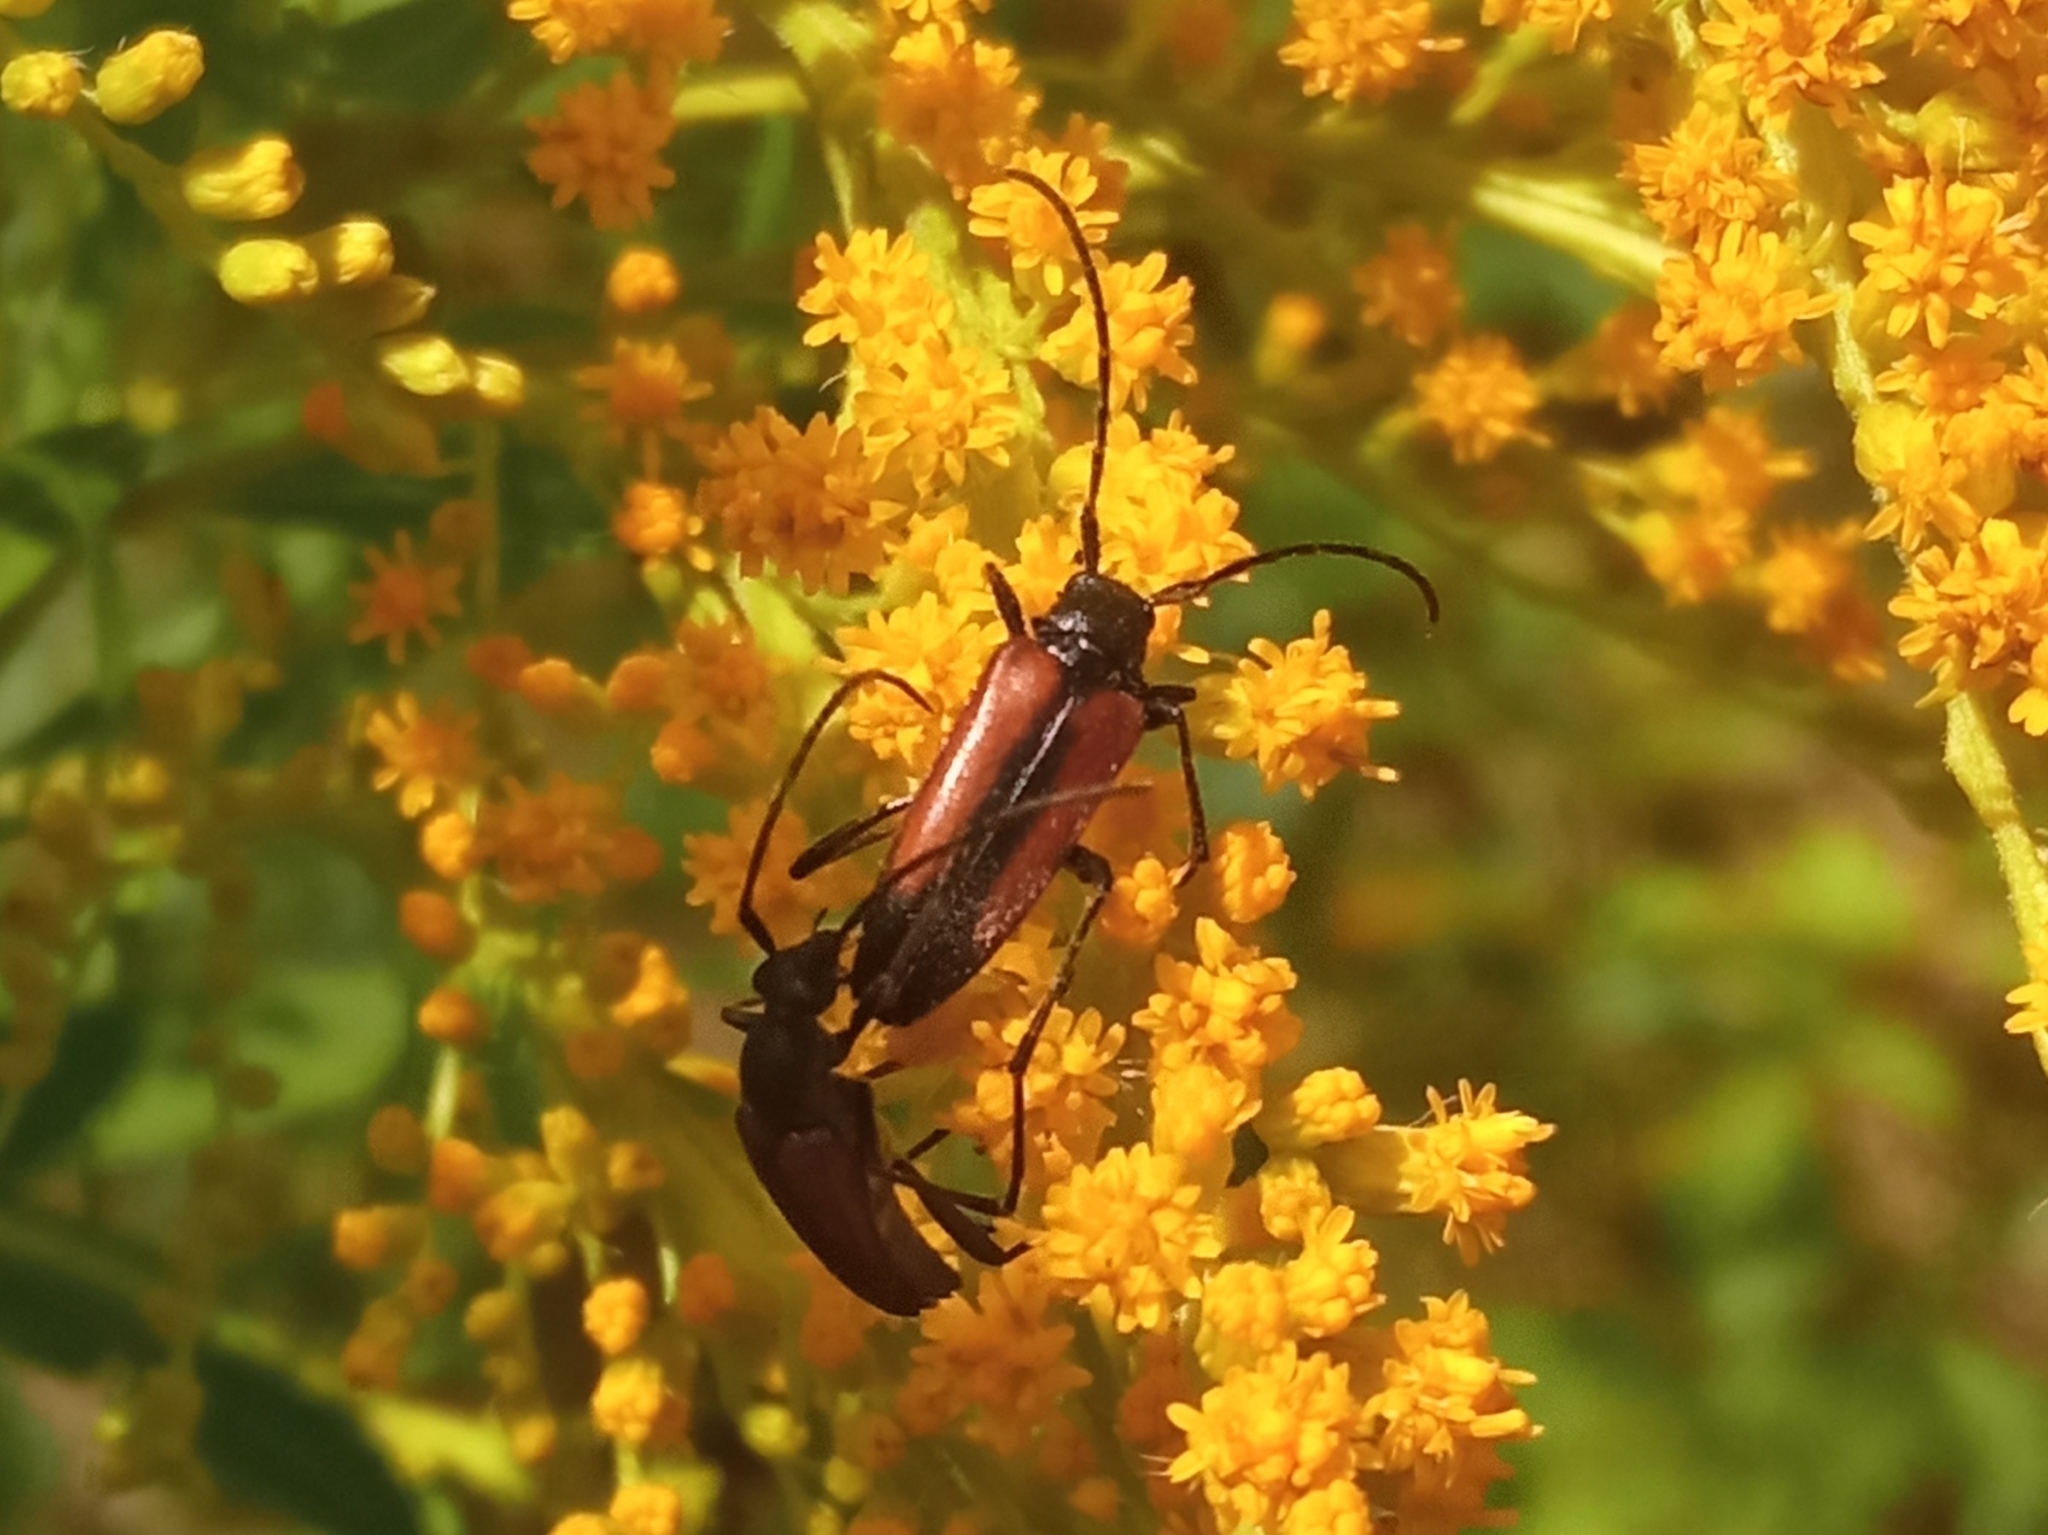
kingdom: Animalia
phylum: Arthropoda
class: Insecta
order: Coleoptera
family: Cerambycidae
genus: Stenurella
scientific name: Stenurella melanura
